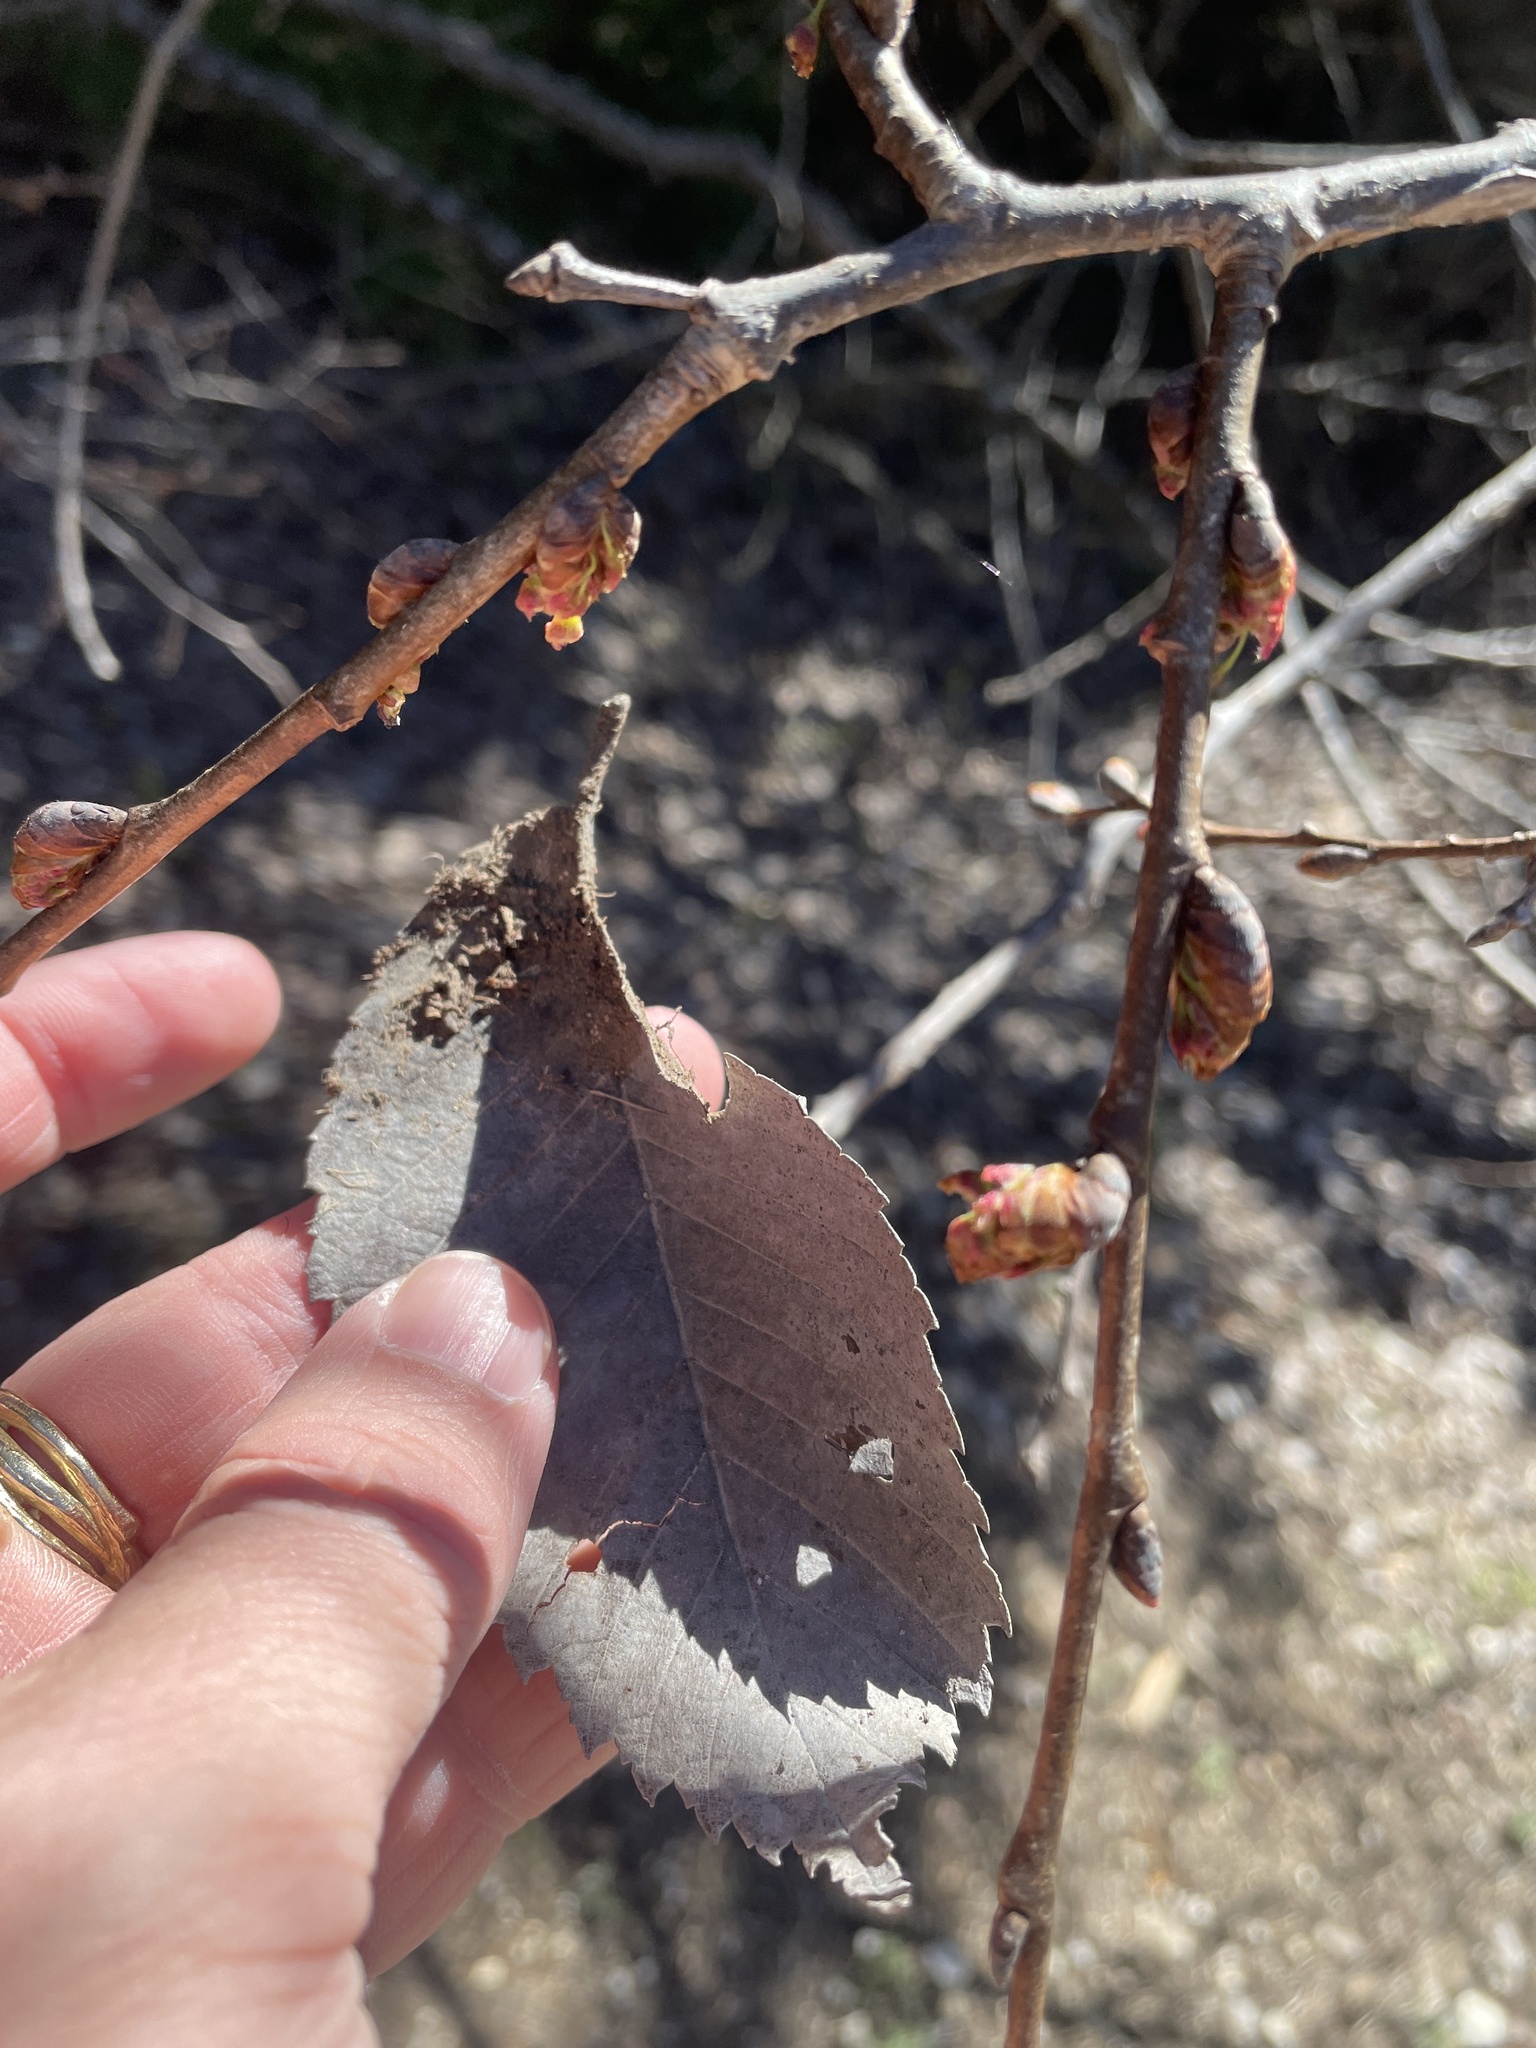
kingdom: Plantae
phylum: Tracheophyta
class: Magnoliopsida
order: Rosales
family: Ulmaceae
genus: Ulmus
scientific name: Ulmus americana
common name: American elm
